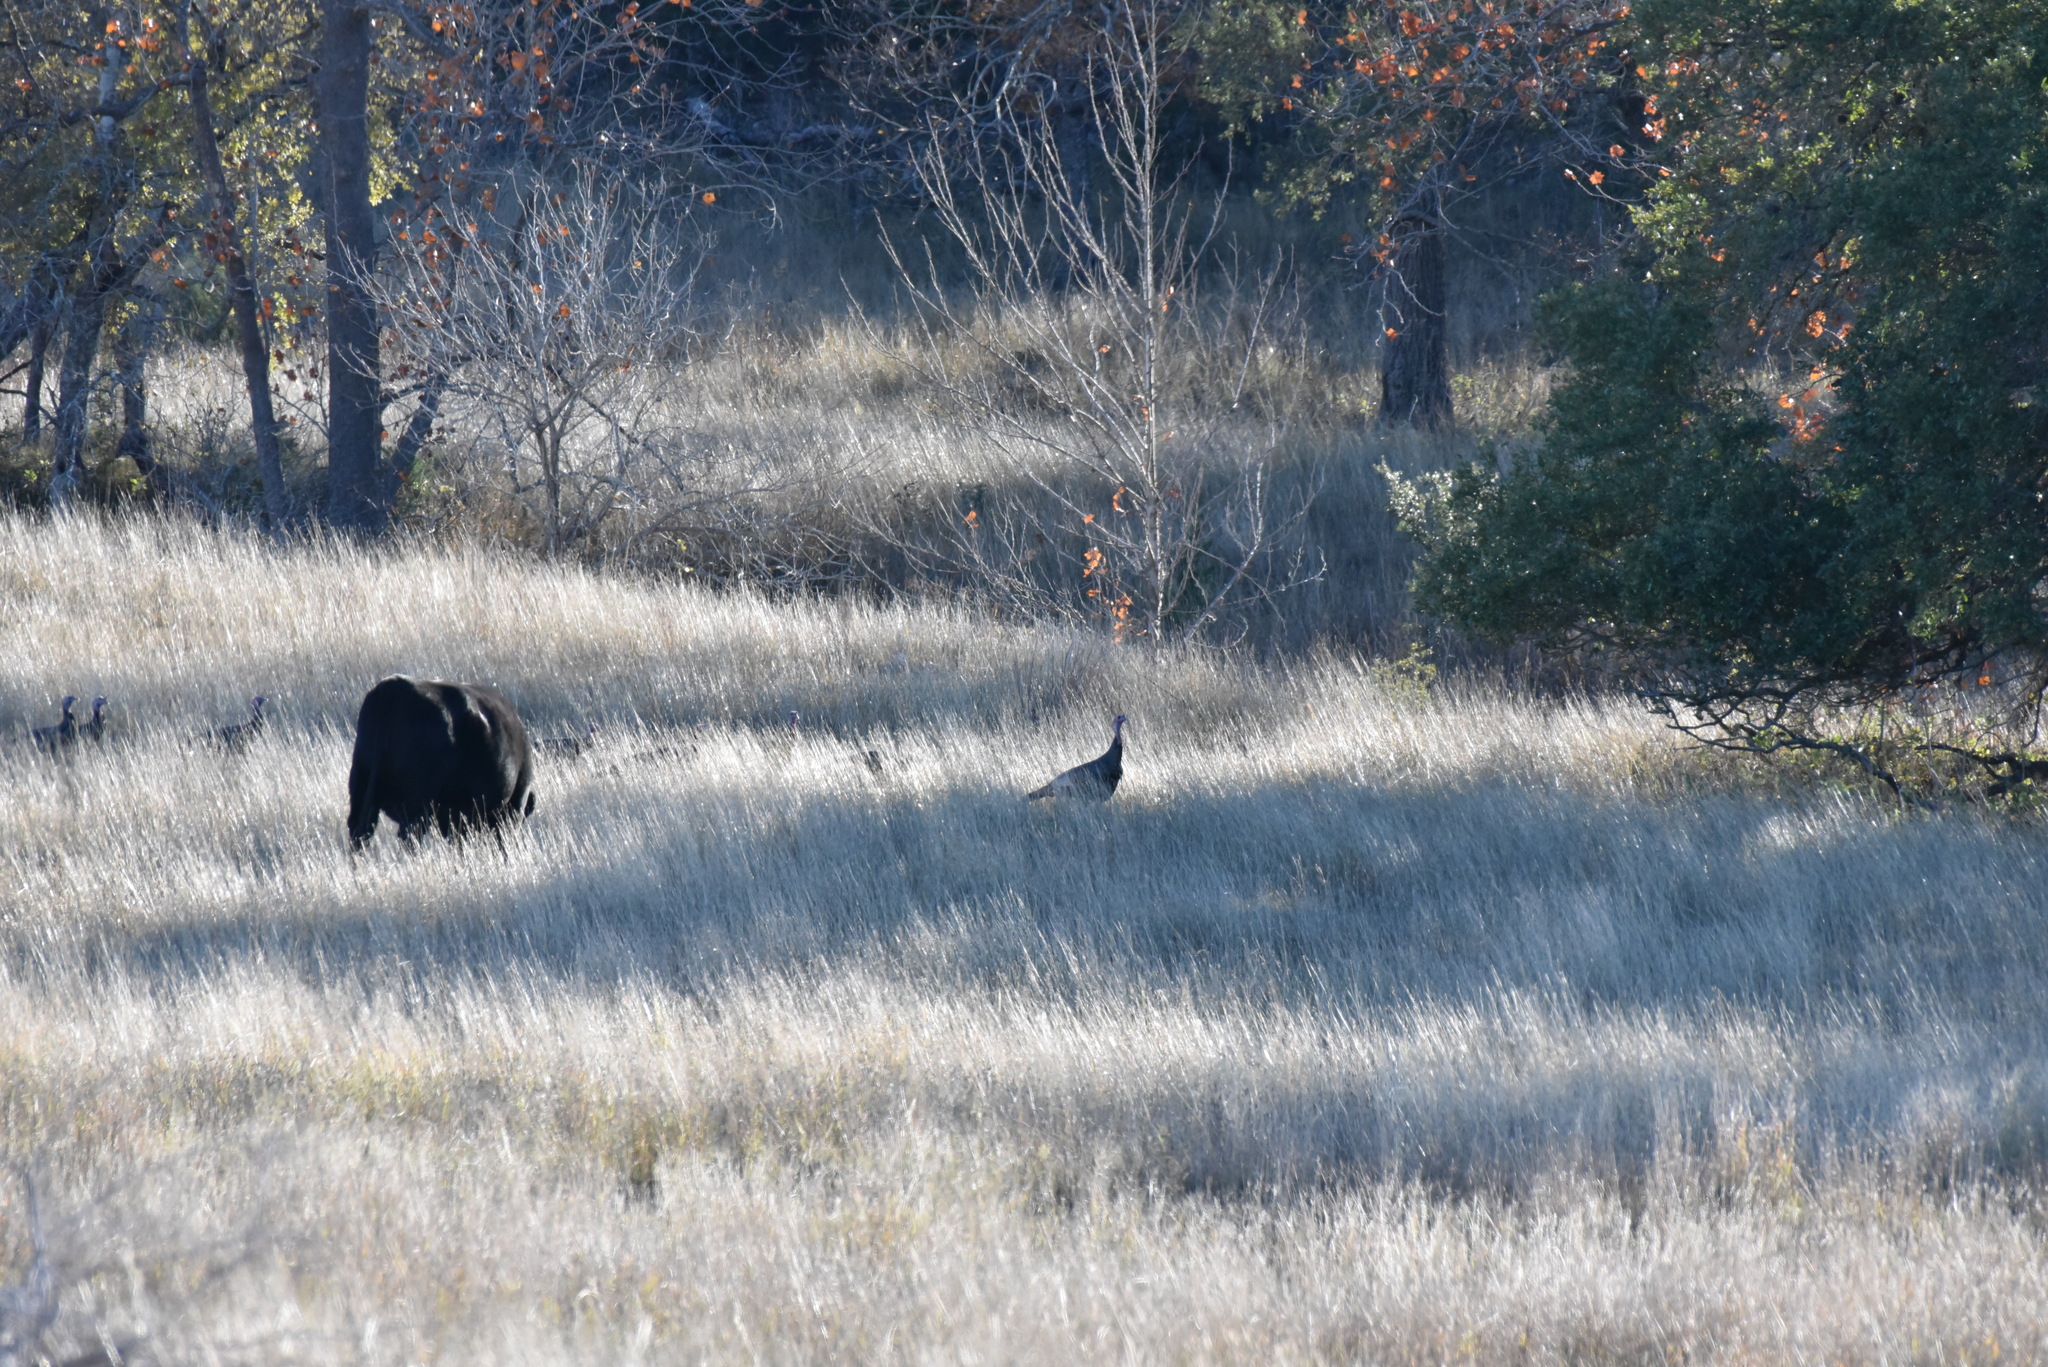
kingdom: Animalia
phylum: Chordata
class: Aves
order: Galliformes
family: Phasianidae
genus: Meleagris
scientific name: Meleagris gallopavo
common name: Wild turkey
